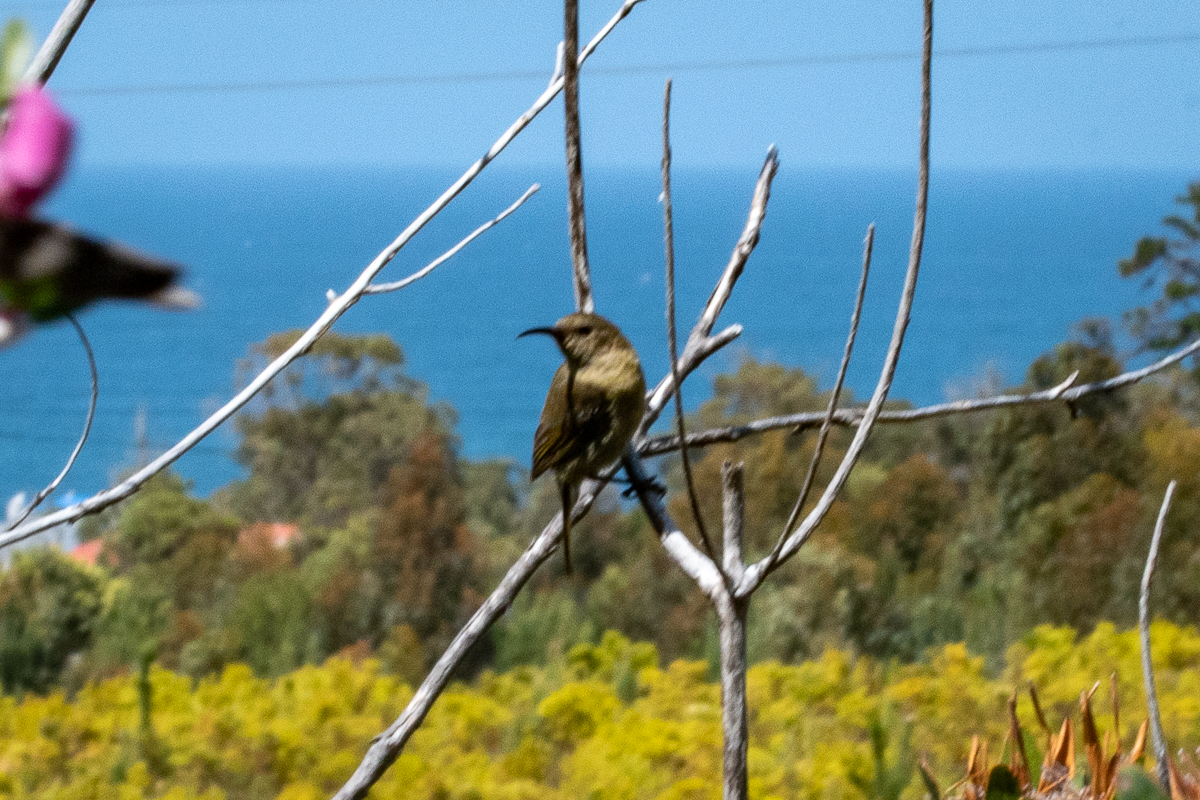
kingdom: Animalia
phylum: Chordata
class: Aves
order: Passeriformes
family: Nectariniidae
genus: Anthobaphes
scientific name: Anthobaphes violacea
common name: Orange-breasted sunbird
